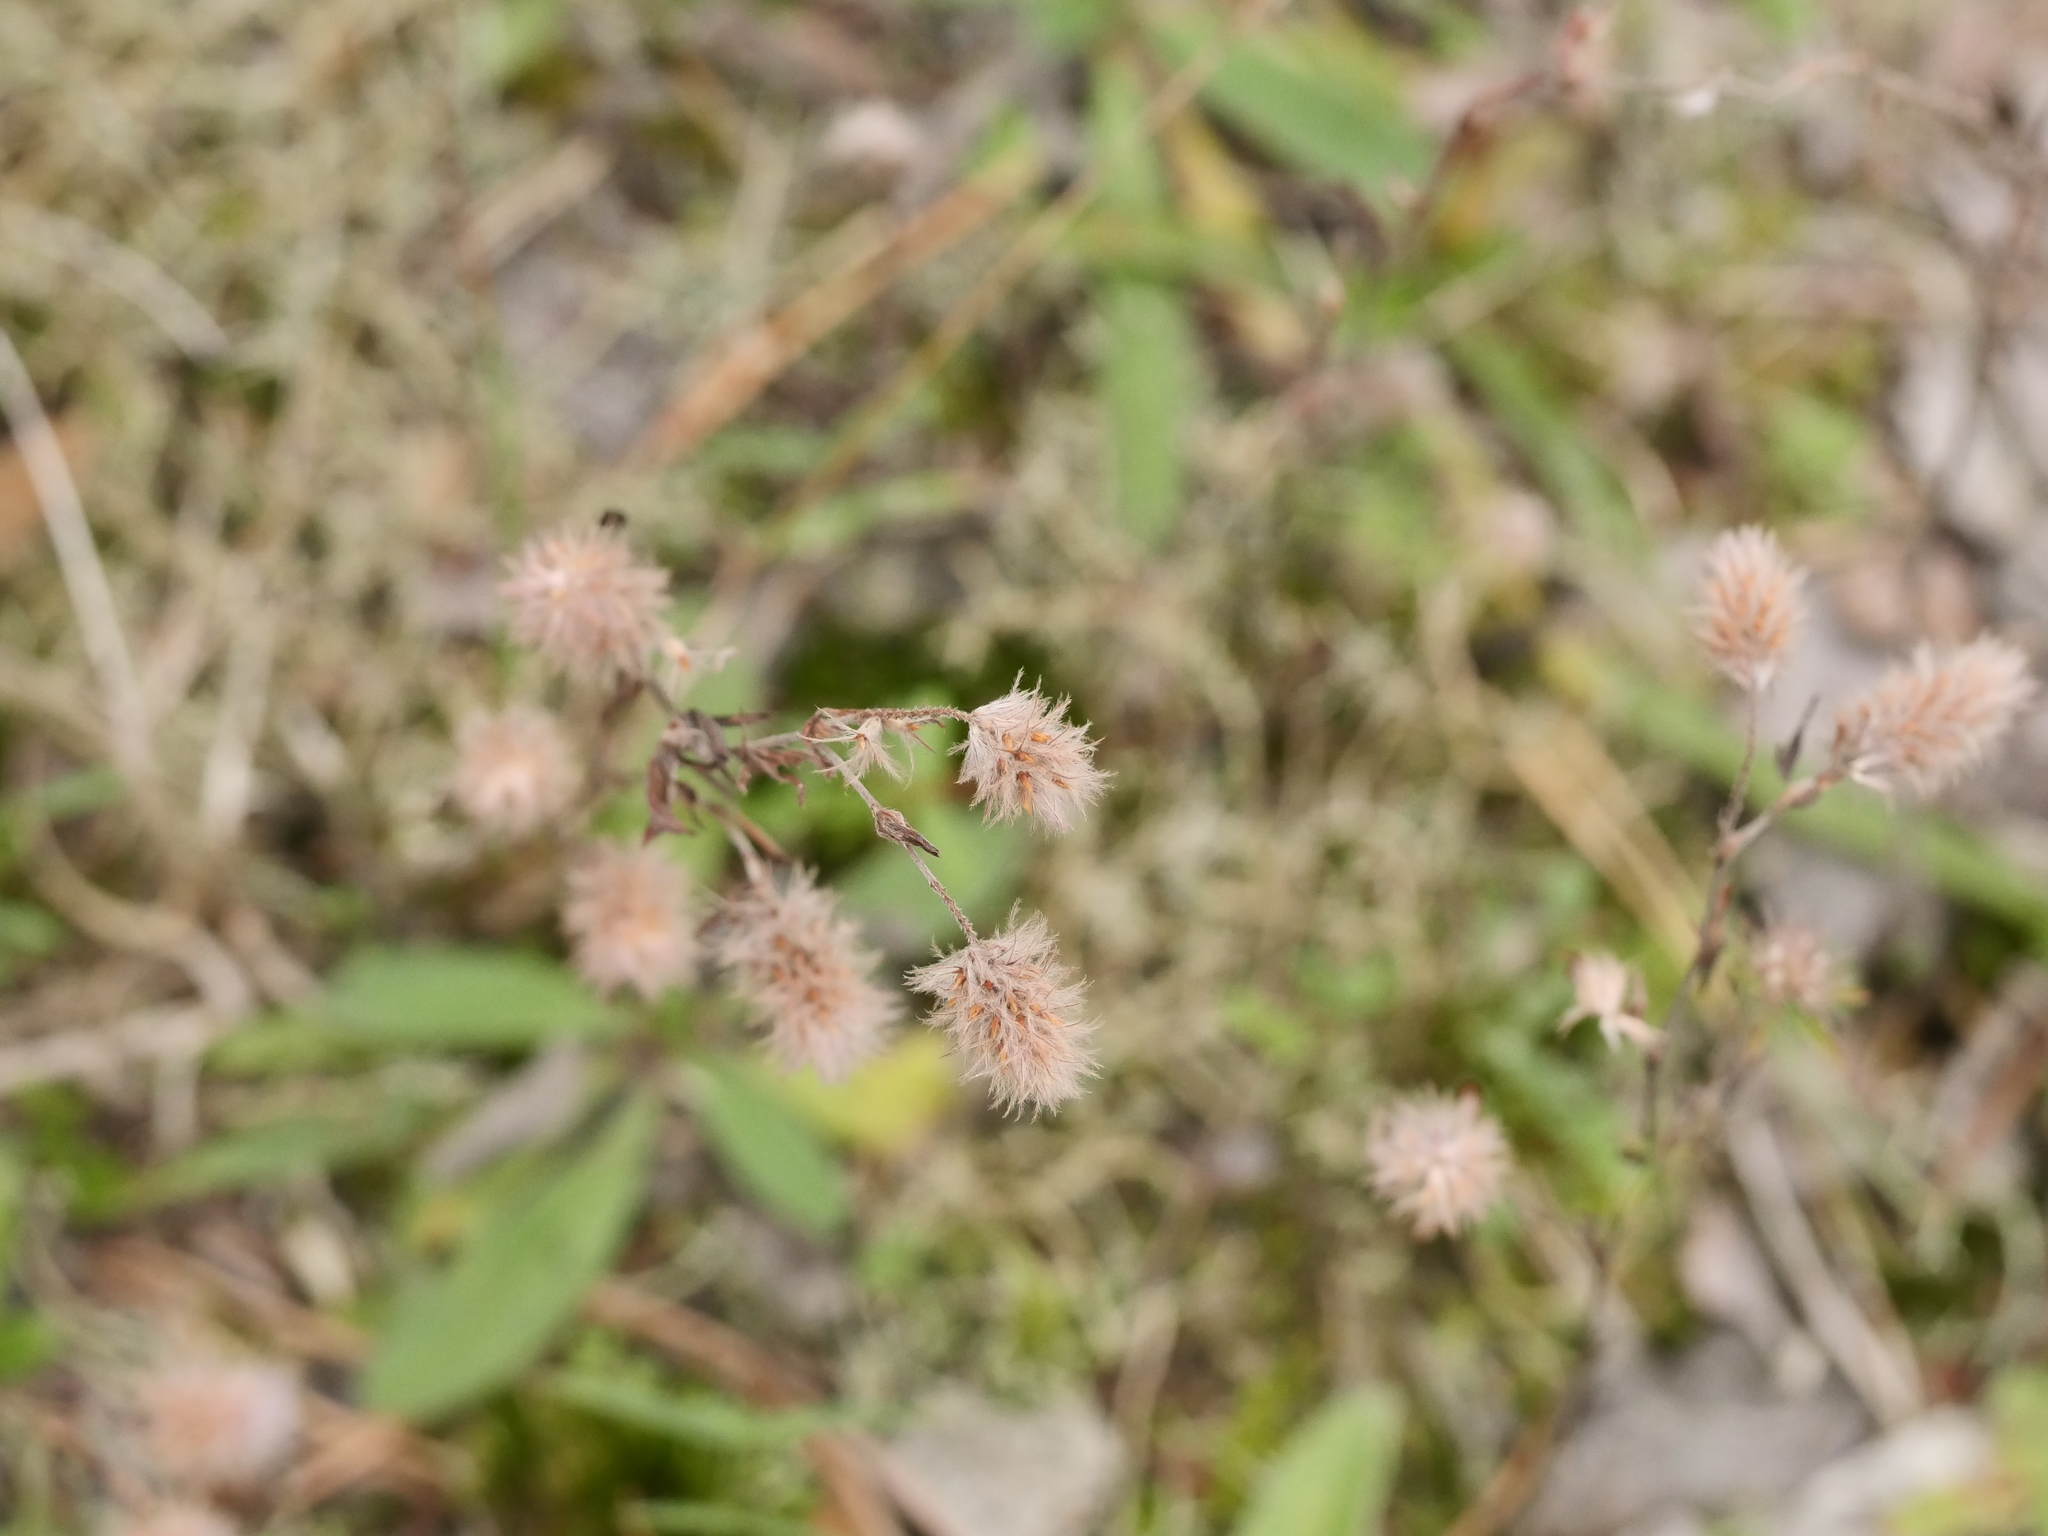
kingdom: Plantae
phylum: Tracheophyta
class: Magnoliopsida
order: Fabales
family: Fabaceae
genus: Trifolium
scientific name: Trifolium arvense
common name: Hare's-foot clover
